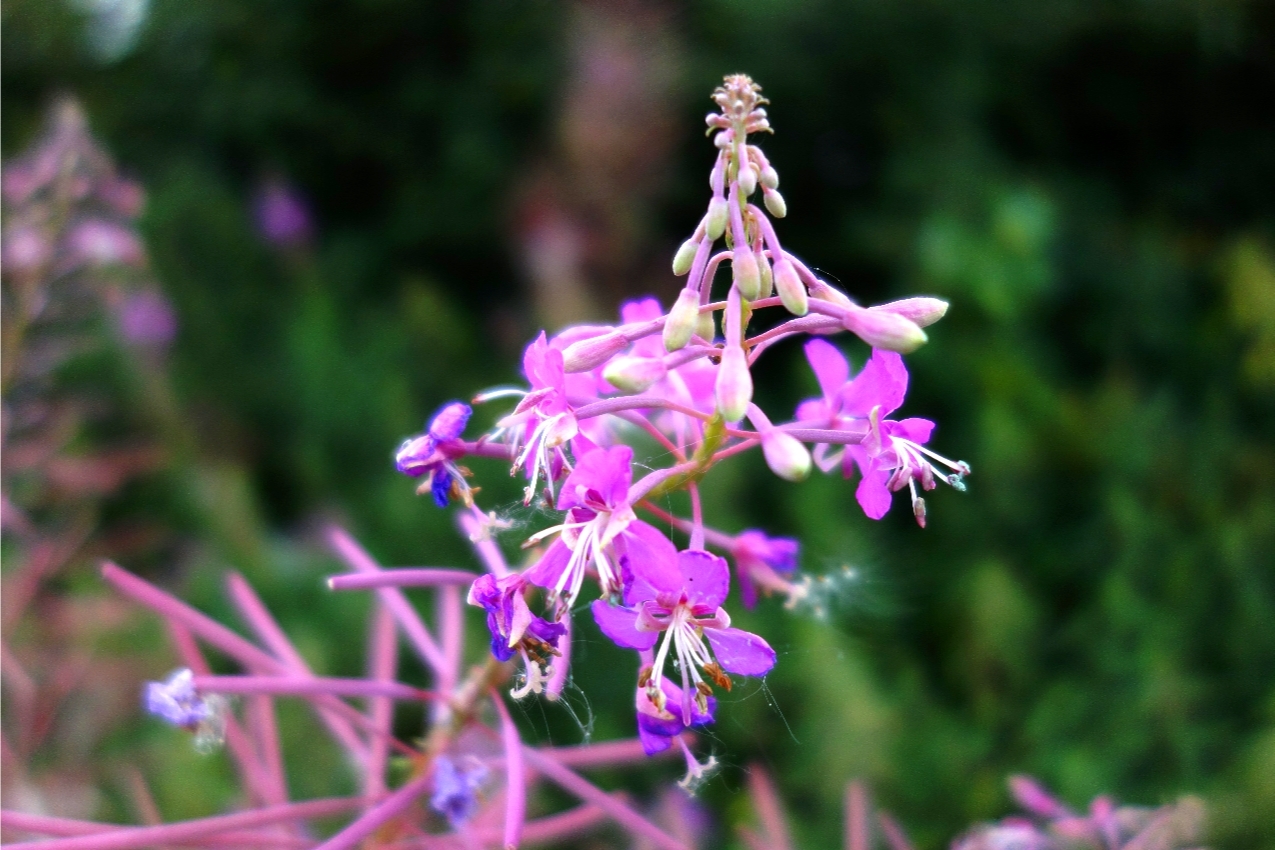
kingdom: Plantae
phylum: Tracheophyta
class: Magnoliopsida
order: Myrtales
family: Onagraceae
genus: Chamaenerion
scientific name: Chamaenerion angustifolium
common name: Fireweed
